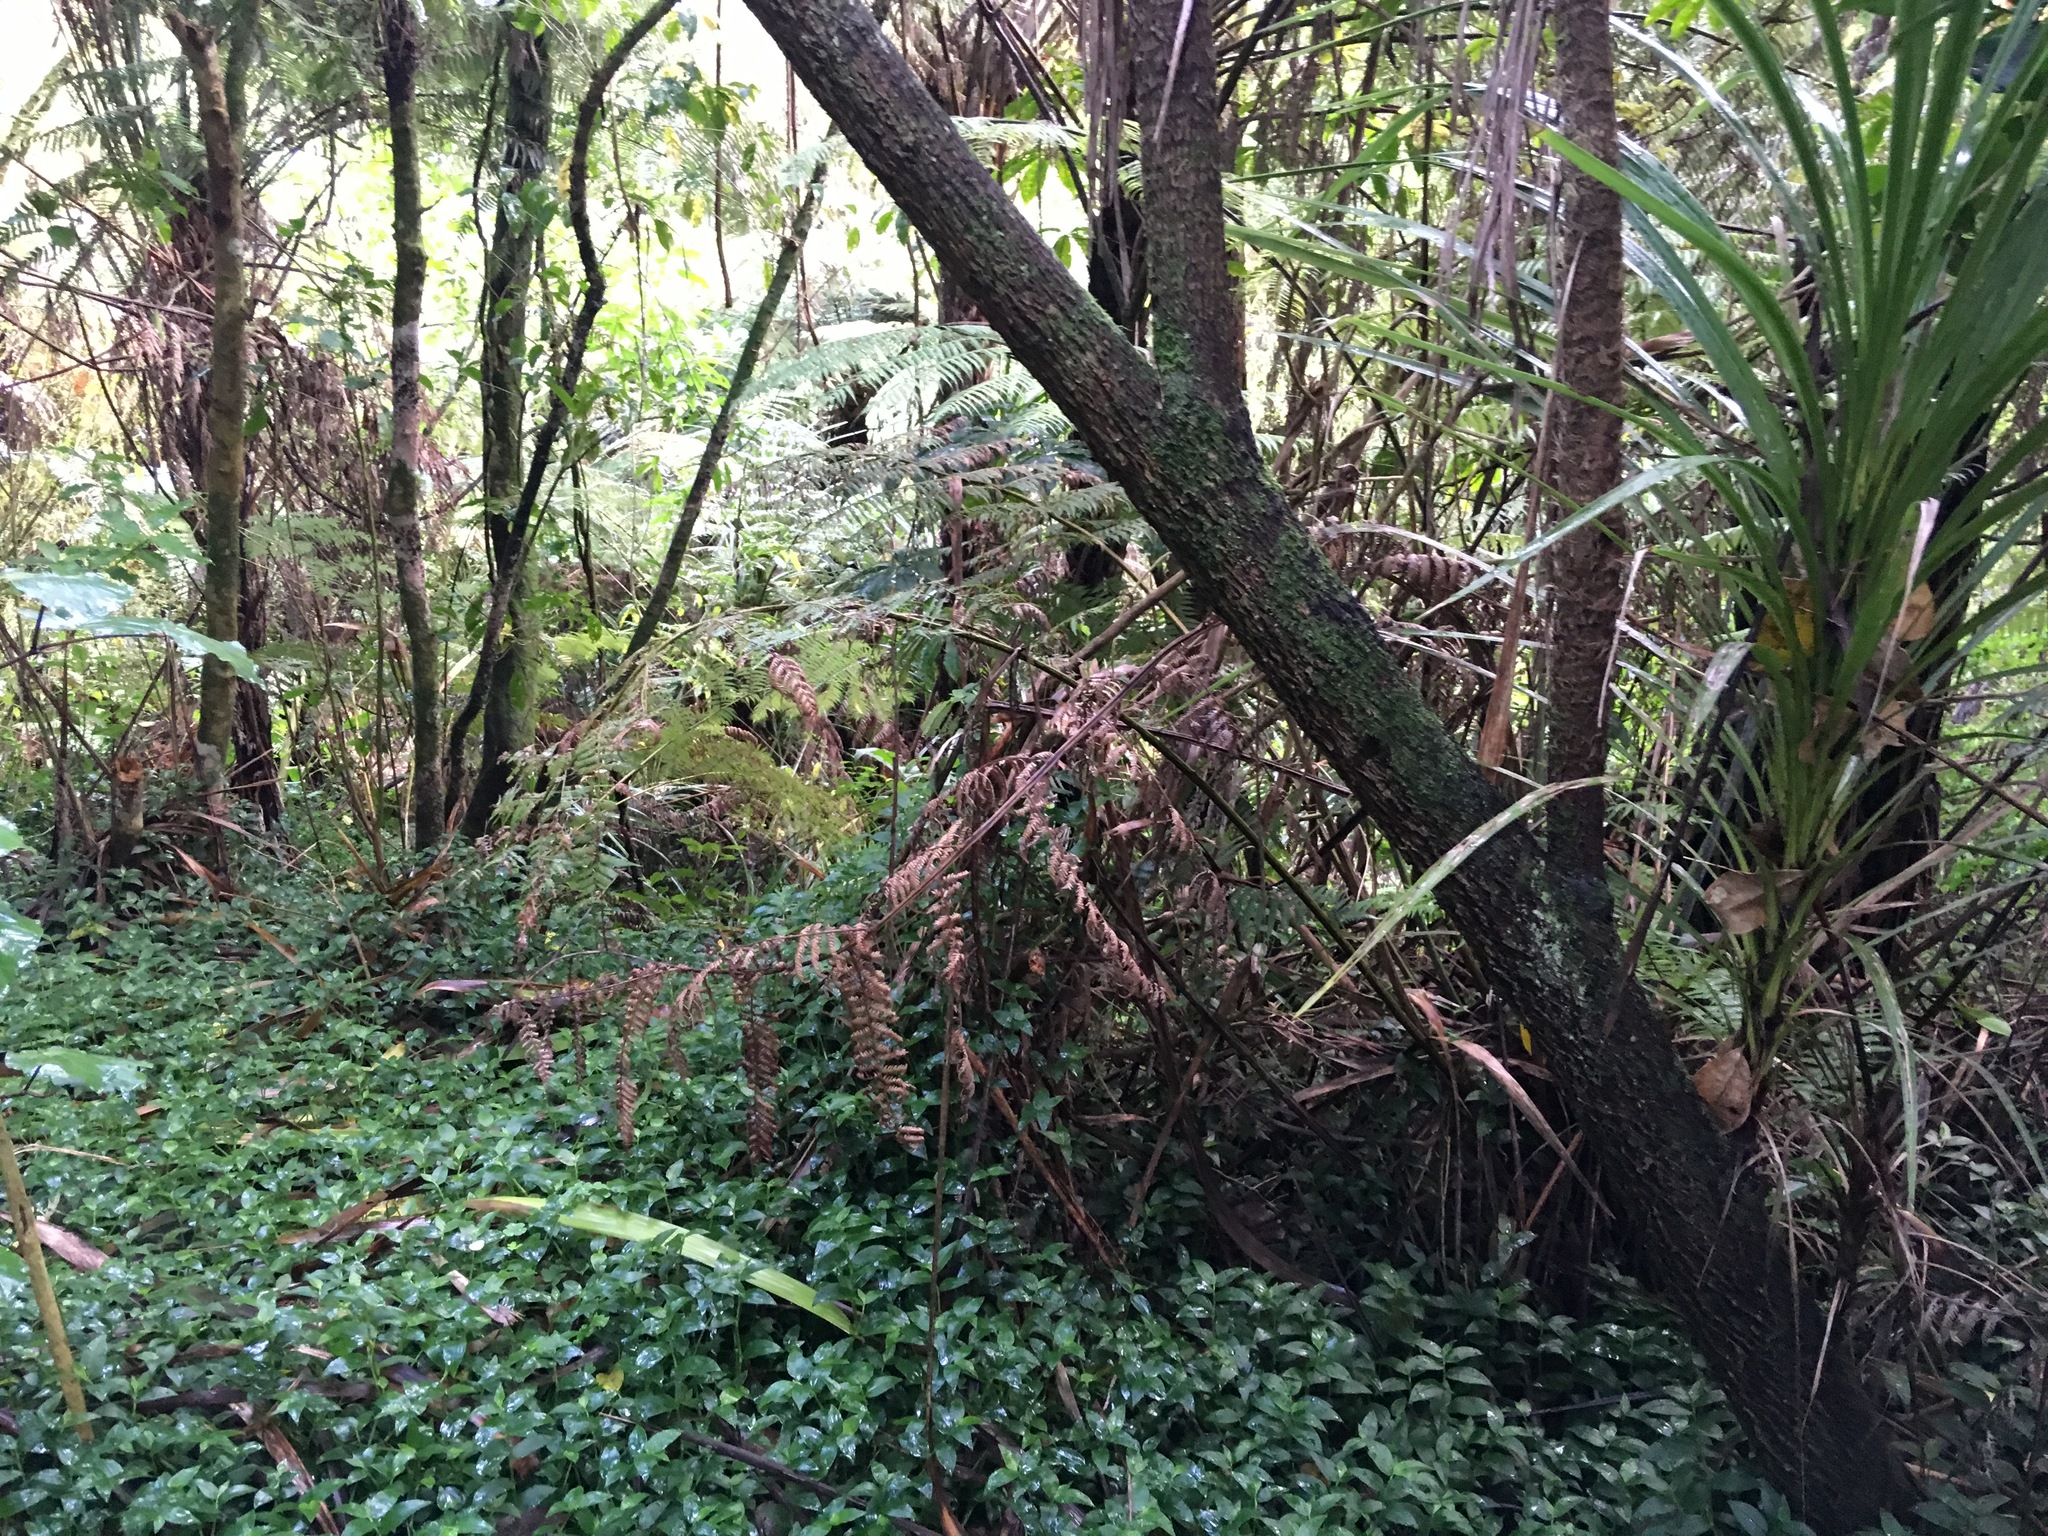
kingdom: Plantae
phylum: Tracheophyta
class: Liliopsida
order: Asparagales
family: Asparagaceae
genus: Cordyline
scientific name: Cordyline australis
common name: Cabbage-palm
